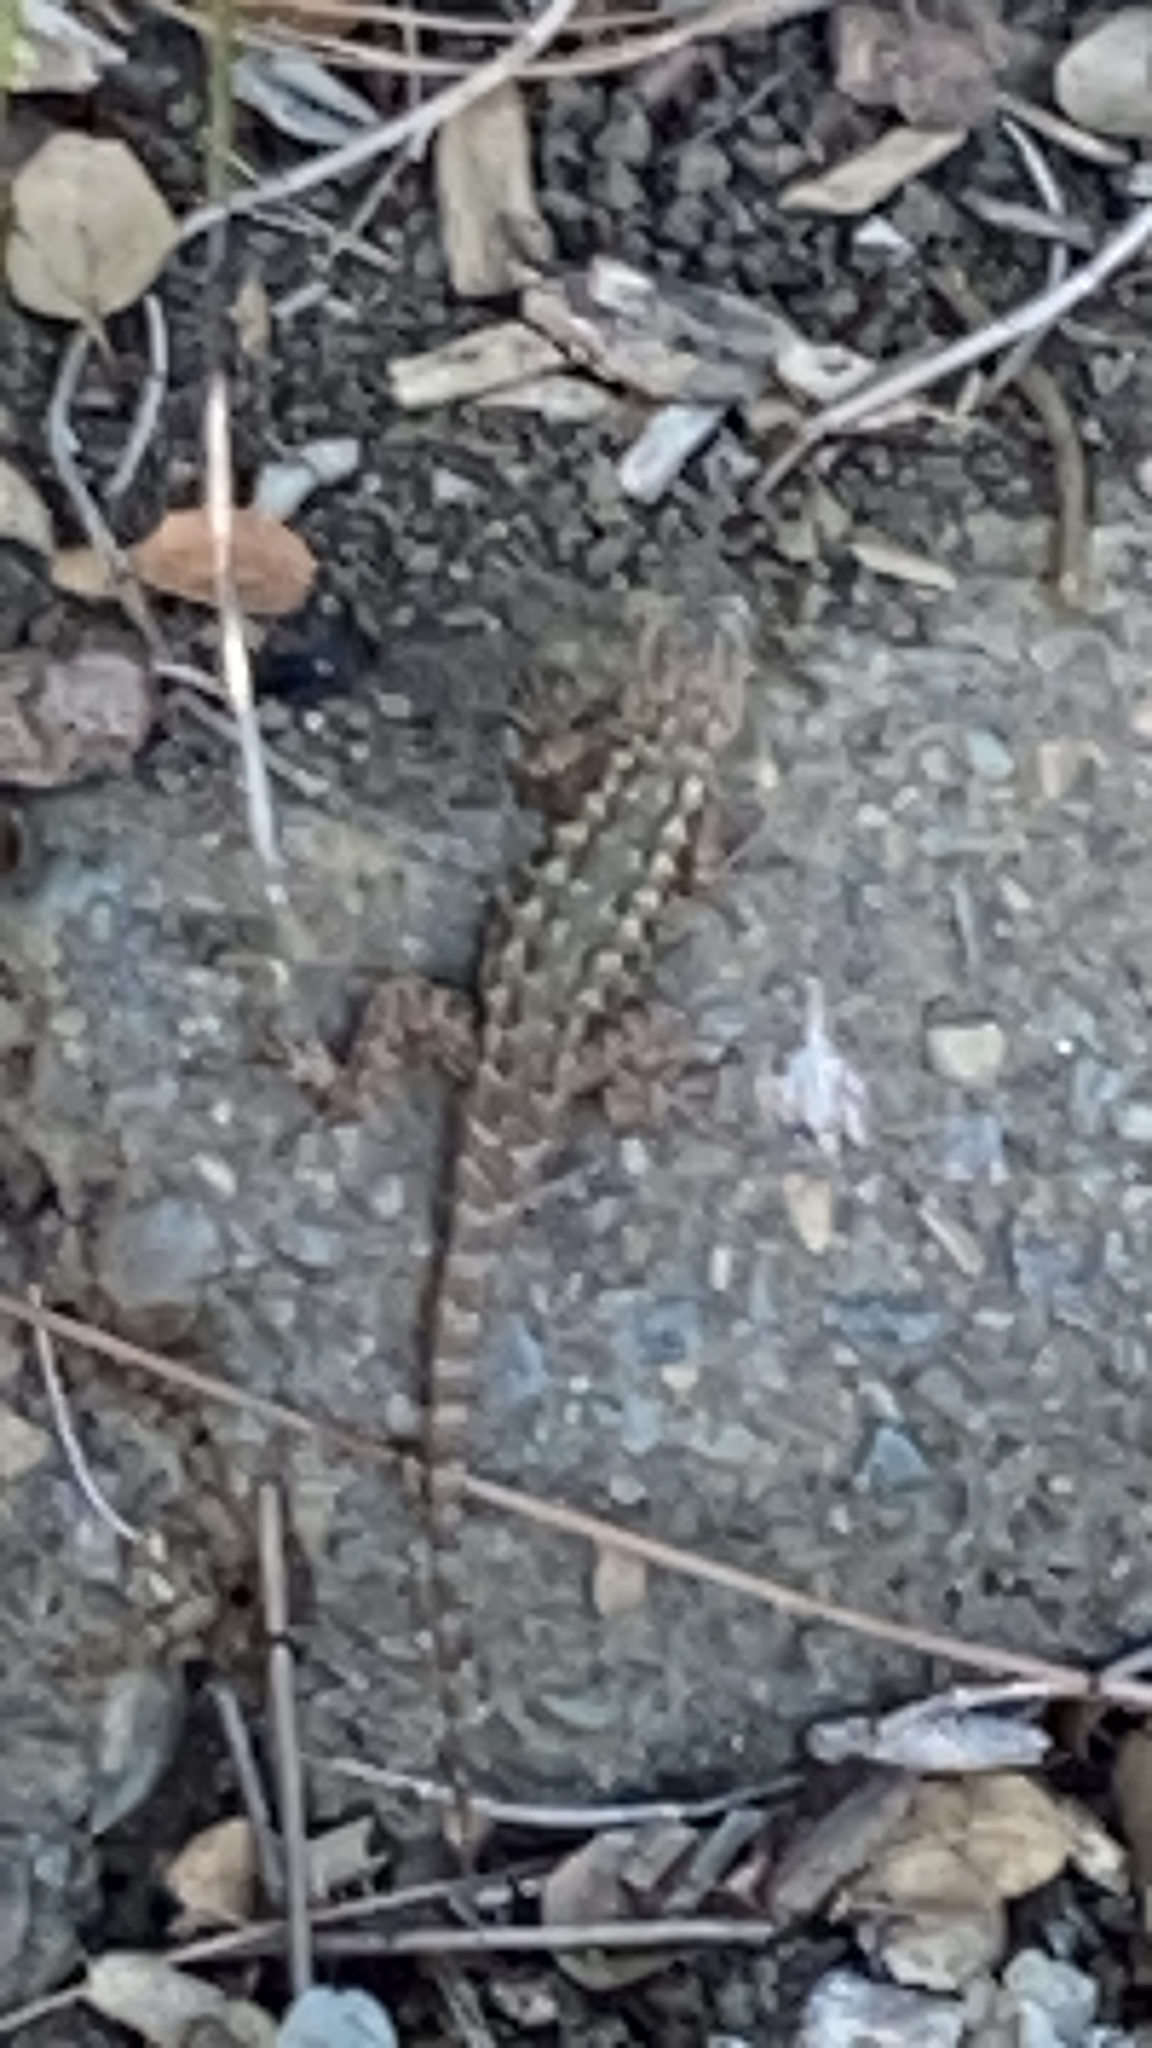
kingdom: Animalia
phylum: Chordata
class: Squamata
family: Phrynosomatidae
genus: Sceloporus
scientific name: Sceloporus occidentalis
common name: Western fence lizard
